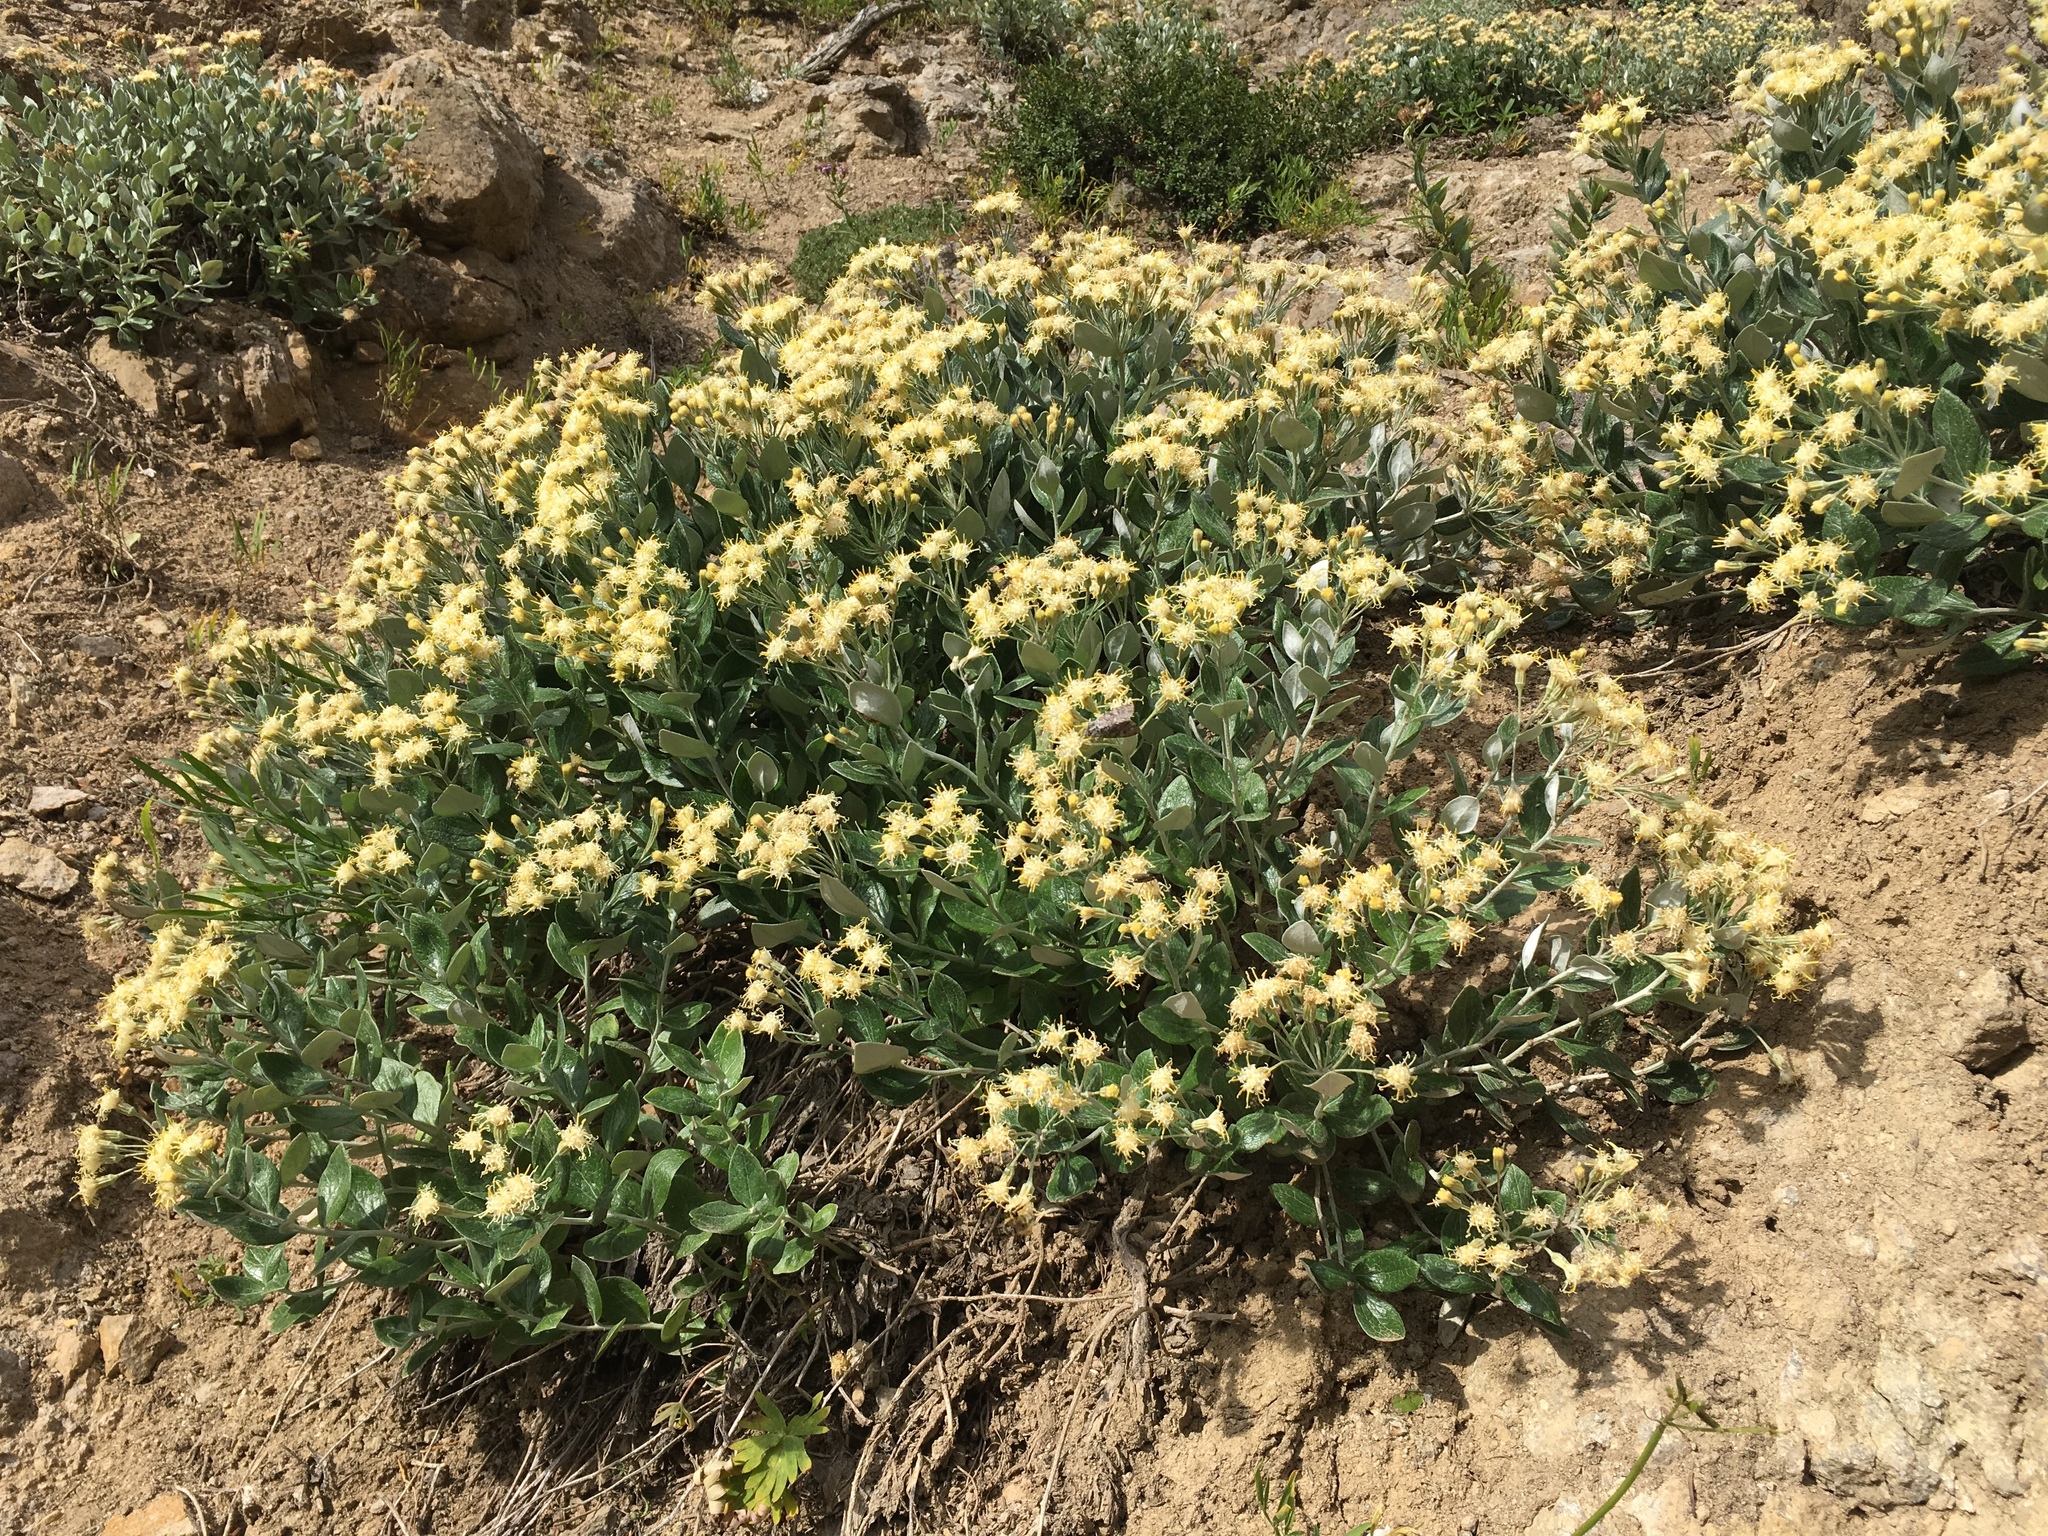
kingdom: Plantae
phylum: Tracheophyta
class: Magnoliopsida
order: Asterales
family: Asteraceae
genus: Luina
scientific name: Luina hypoleuca
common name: Little-leaved luina
